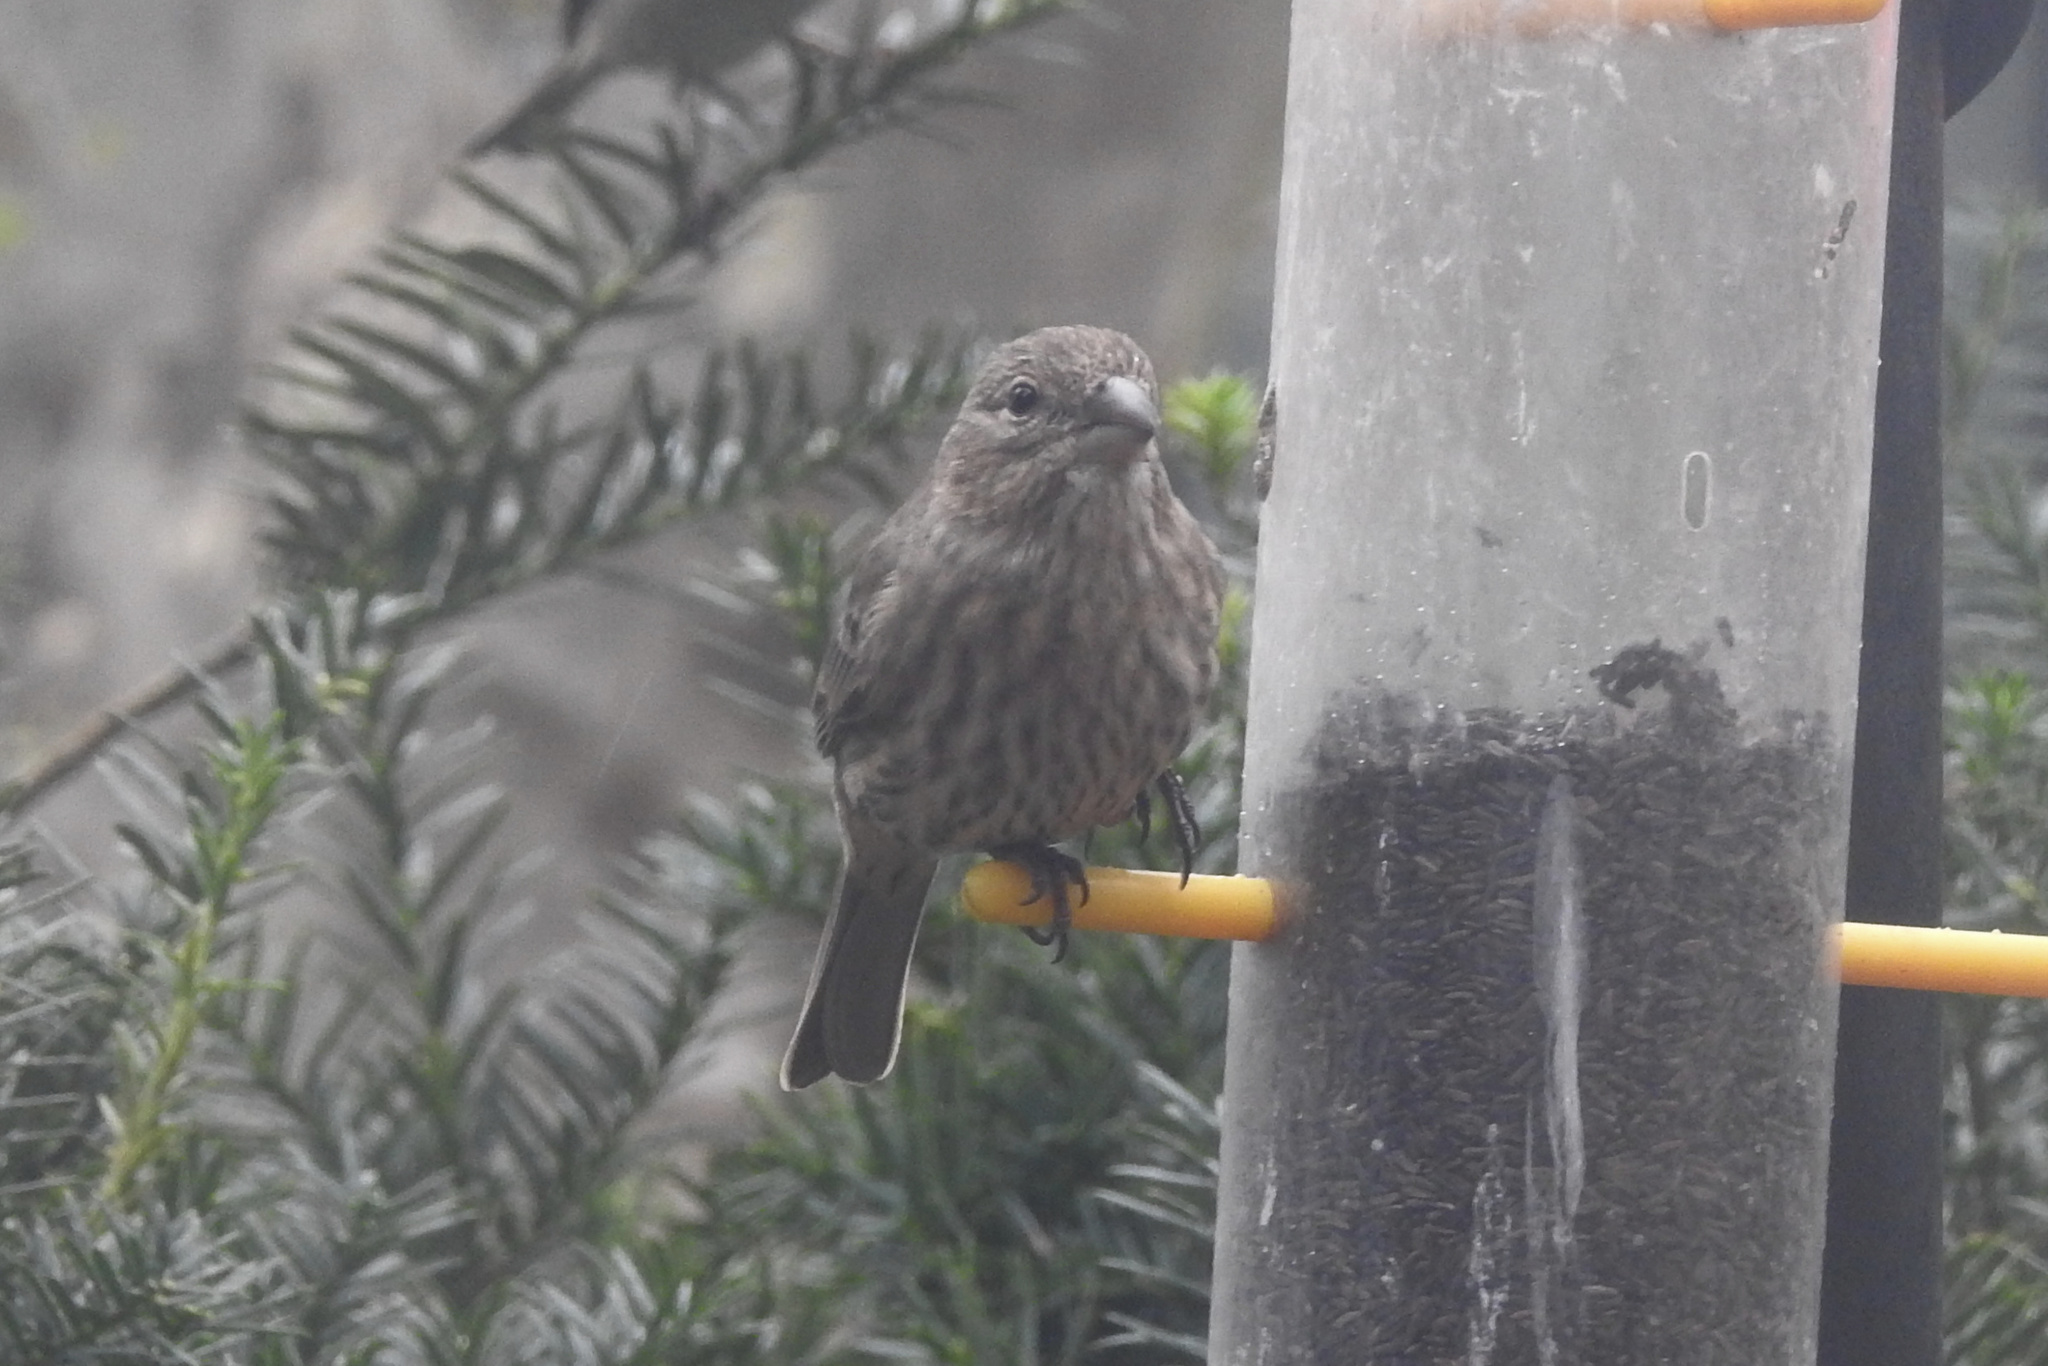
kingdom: Animalia
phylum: Chordata
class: Aves
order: Passeriformes
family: Fringillidae
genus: Haemorhous
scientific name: Haemorhous mexicanus
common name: House finch
